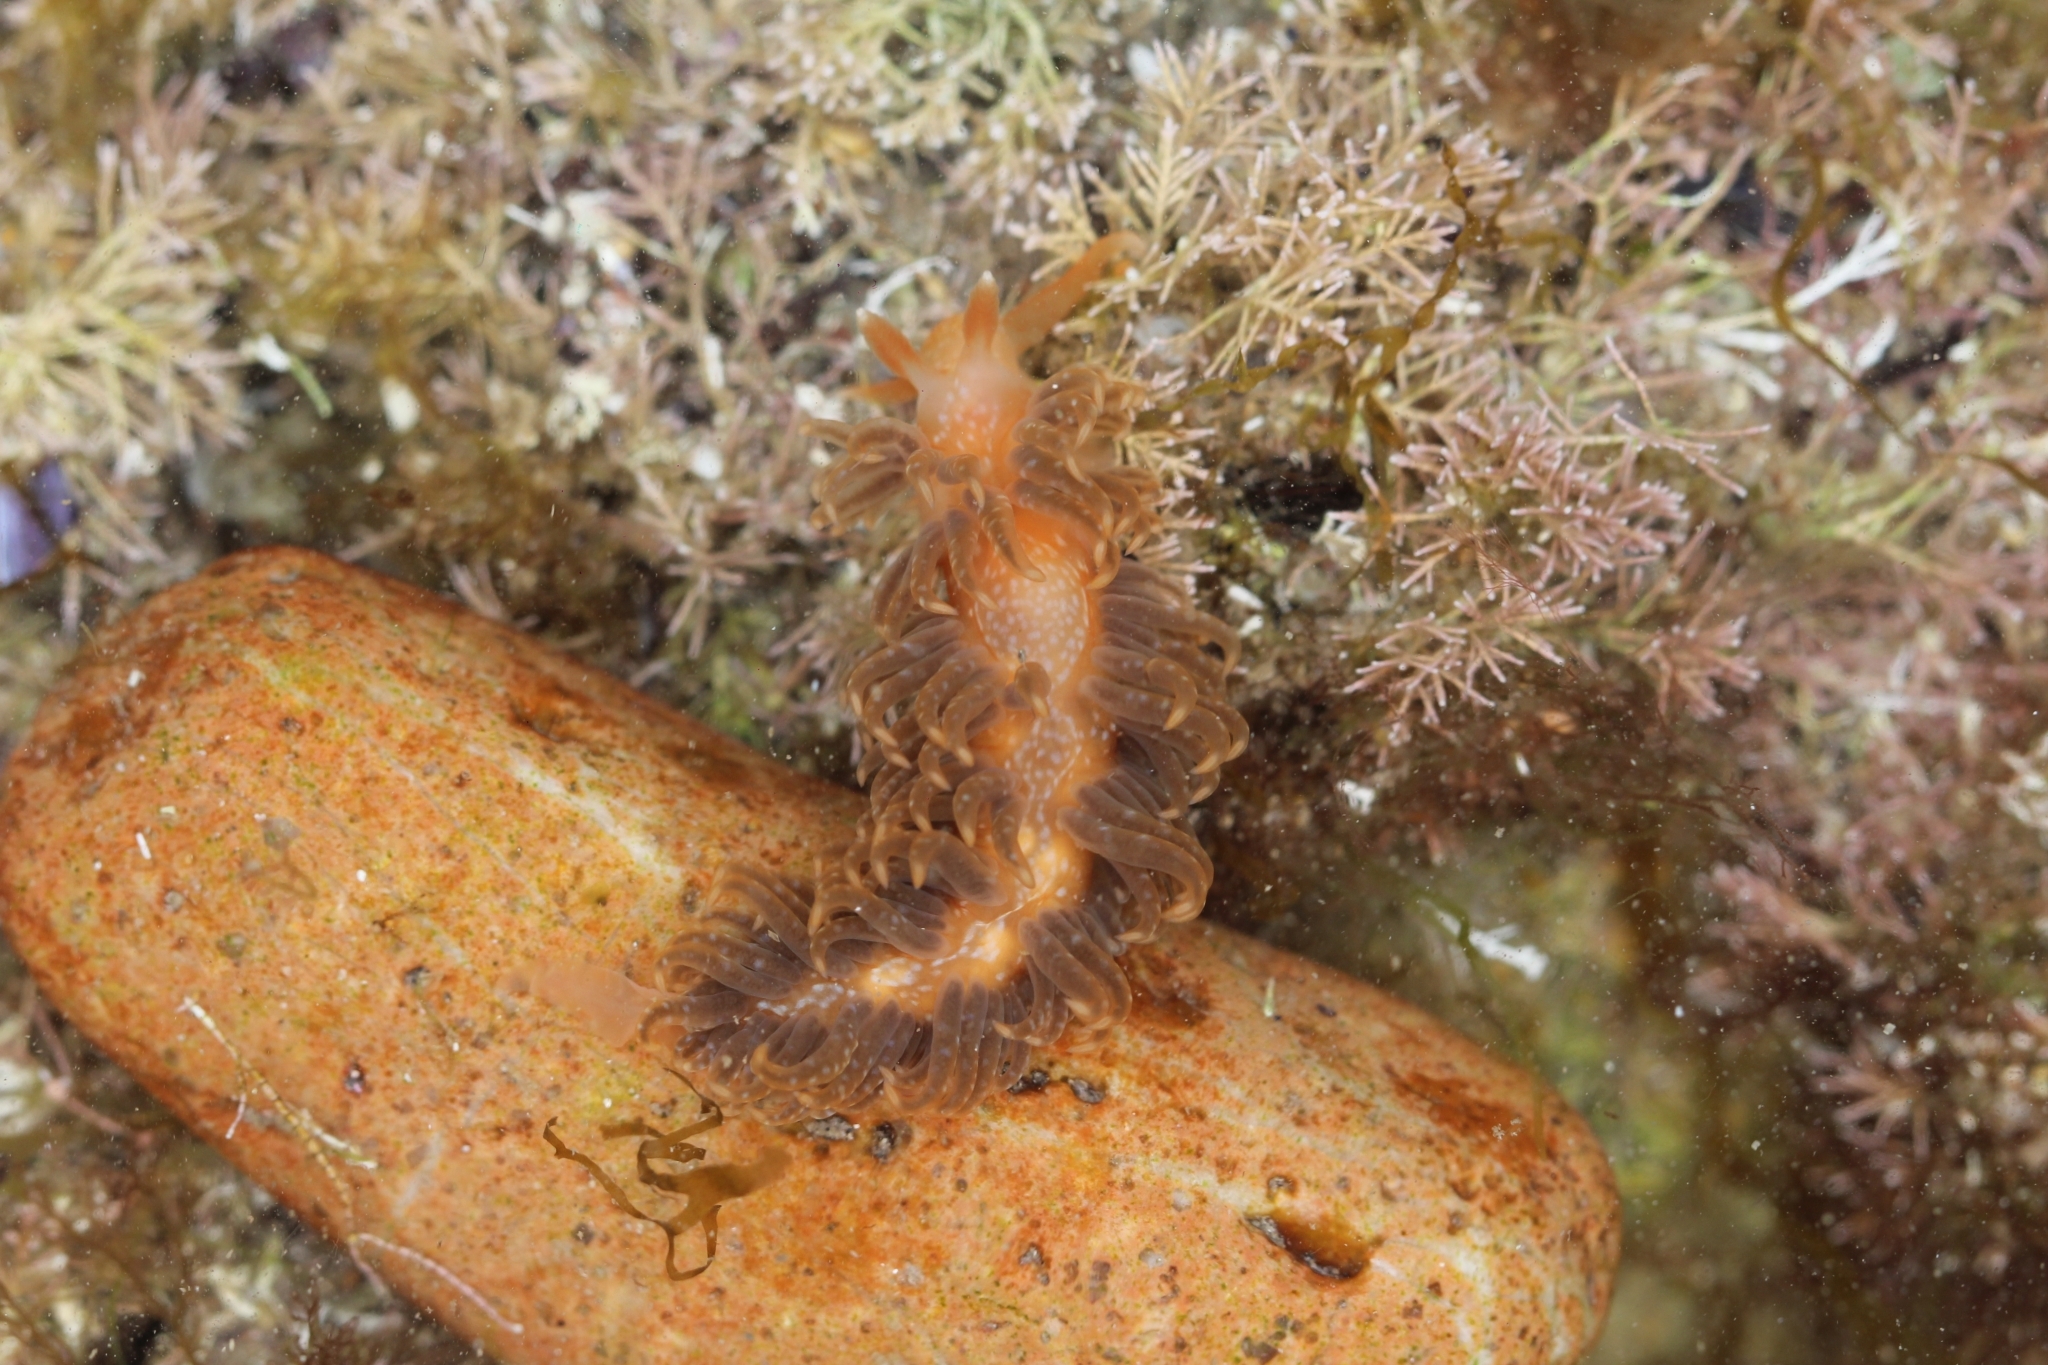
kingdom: Animalia
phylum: Mollusca
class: Gastropoda
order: Nudibranchia
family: Aeolidiidae
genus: Spurilla
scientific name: Spurilla braziliana
